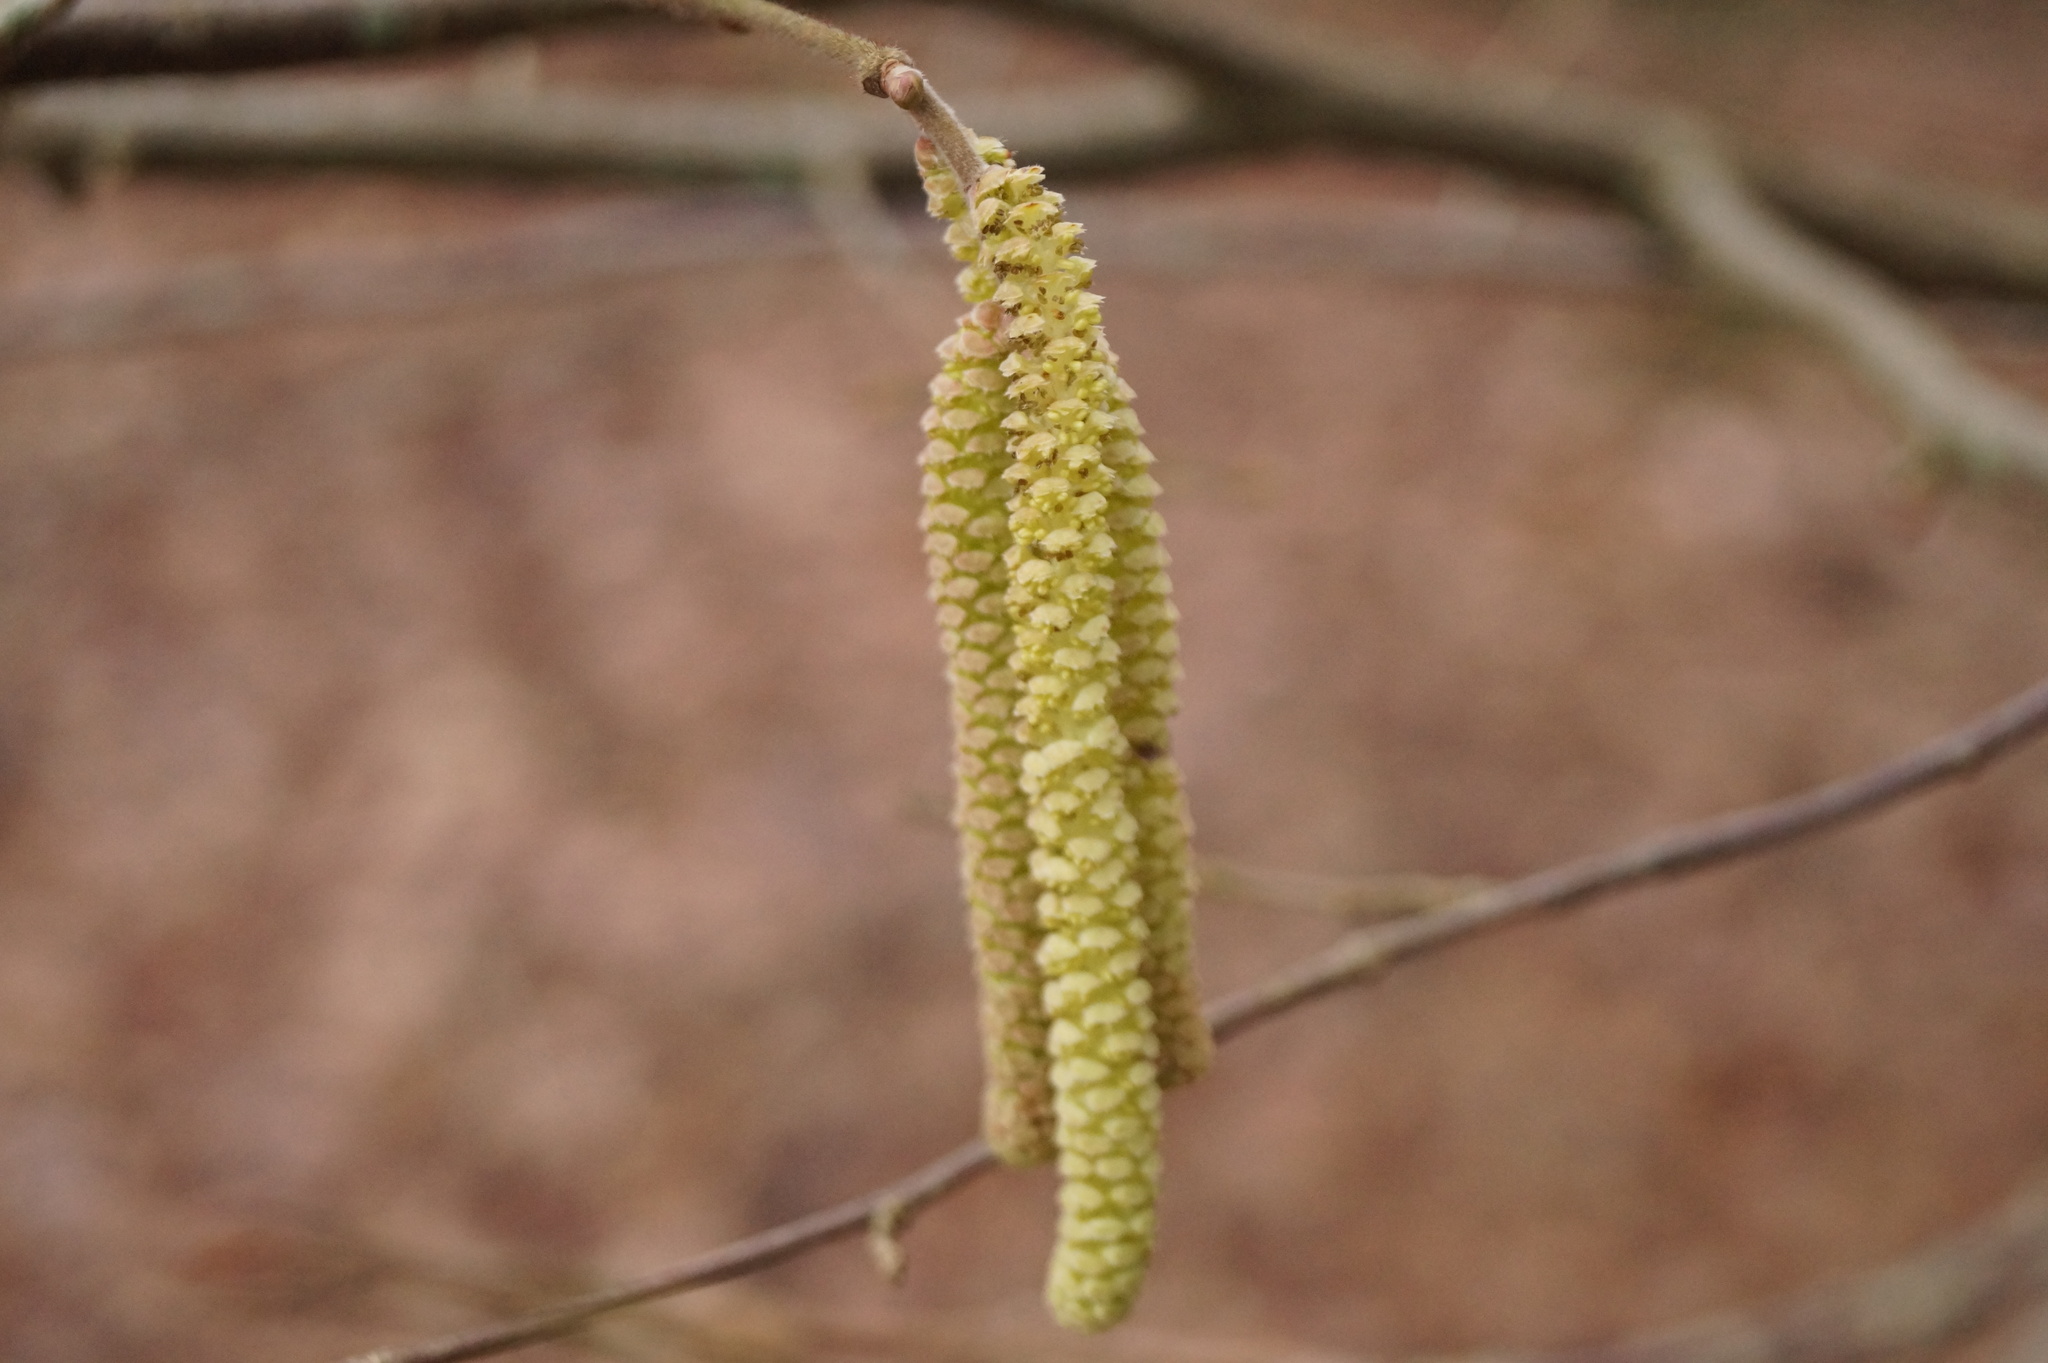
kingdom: Plantae
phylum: Tracheophyta
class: Magnoliopsida
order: Fagales
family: Betulaceae
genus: Corylus
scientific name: Corylus avellana
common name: European hazel
